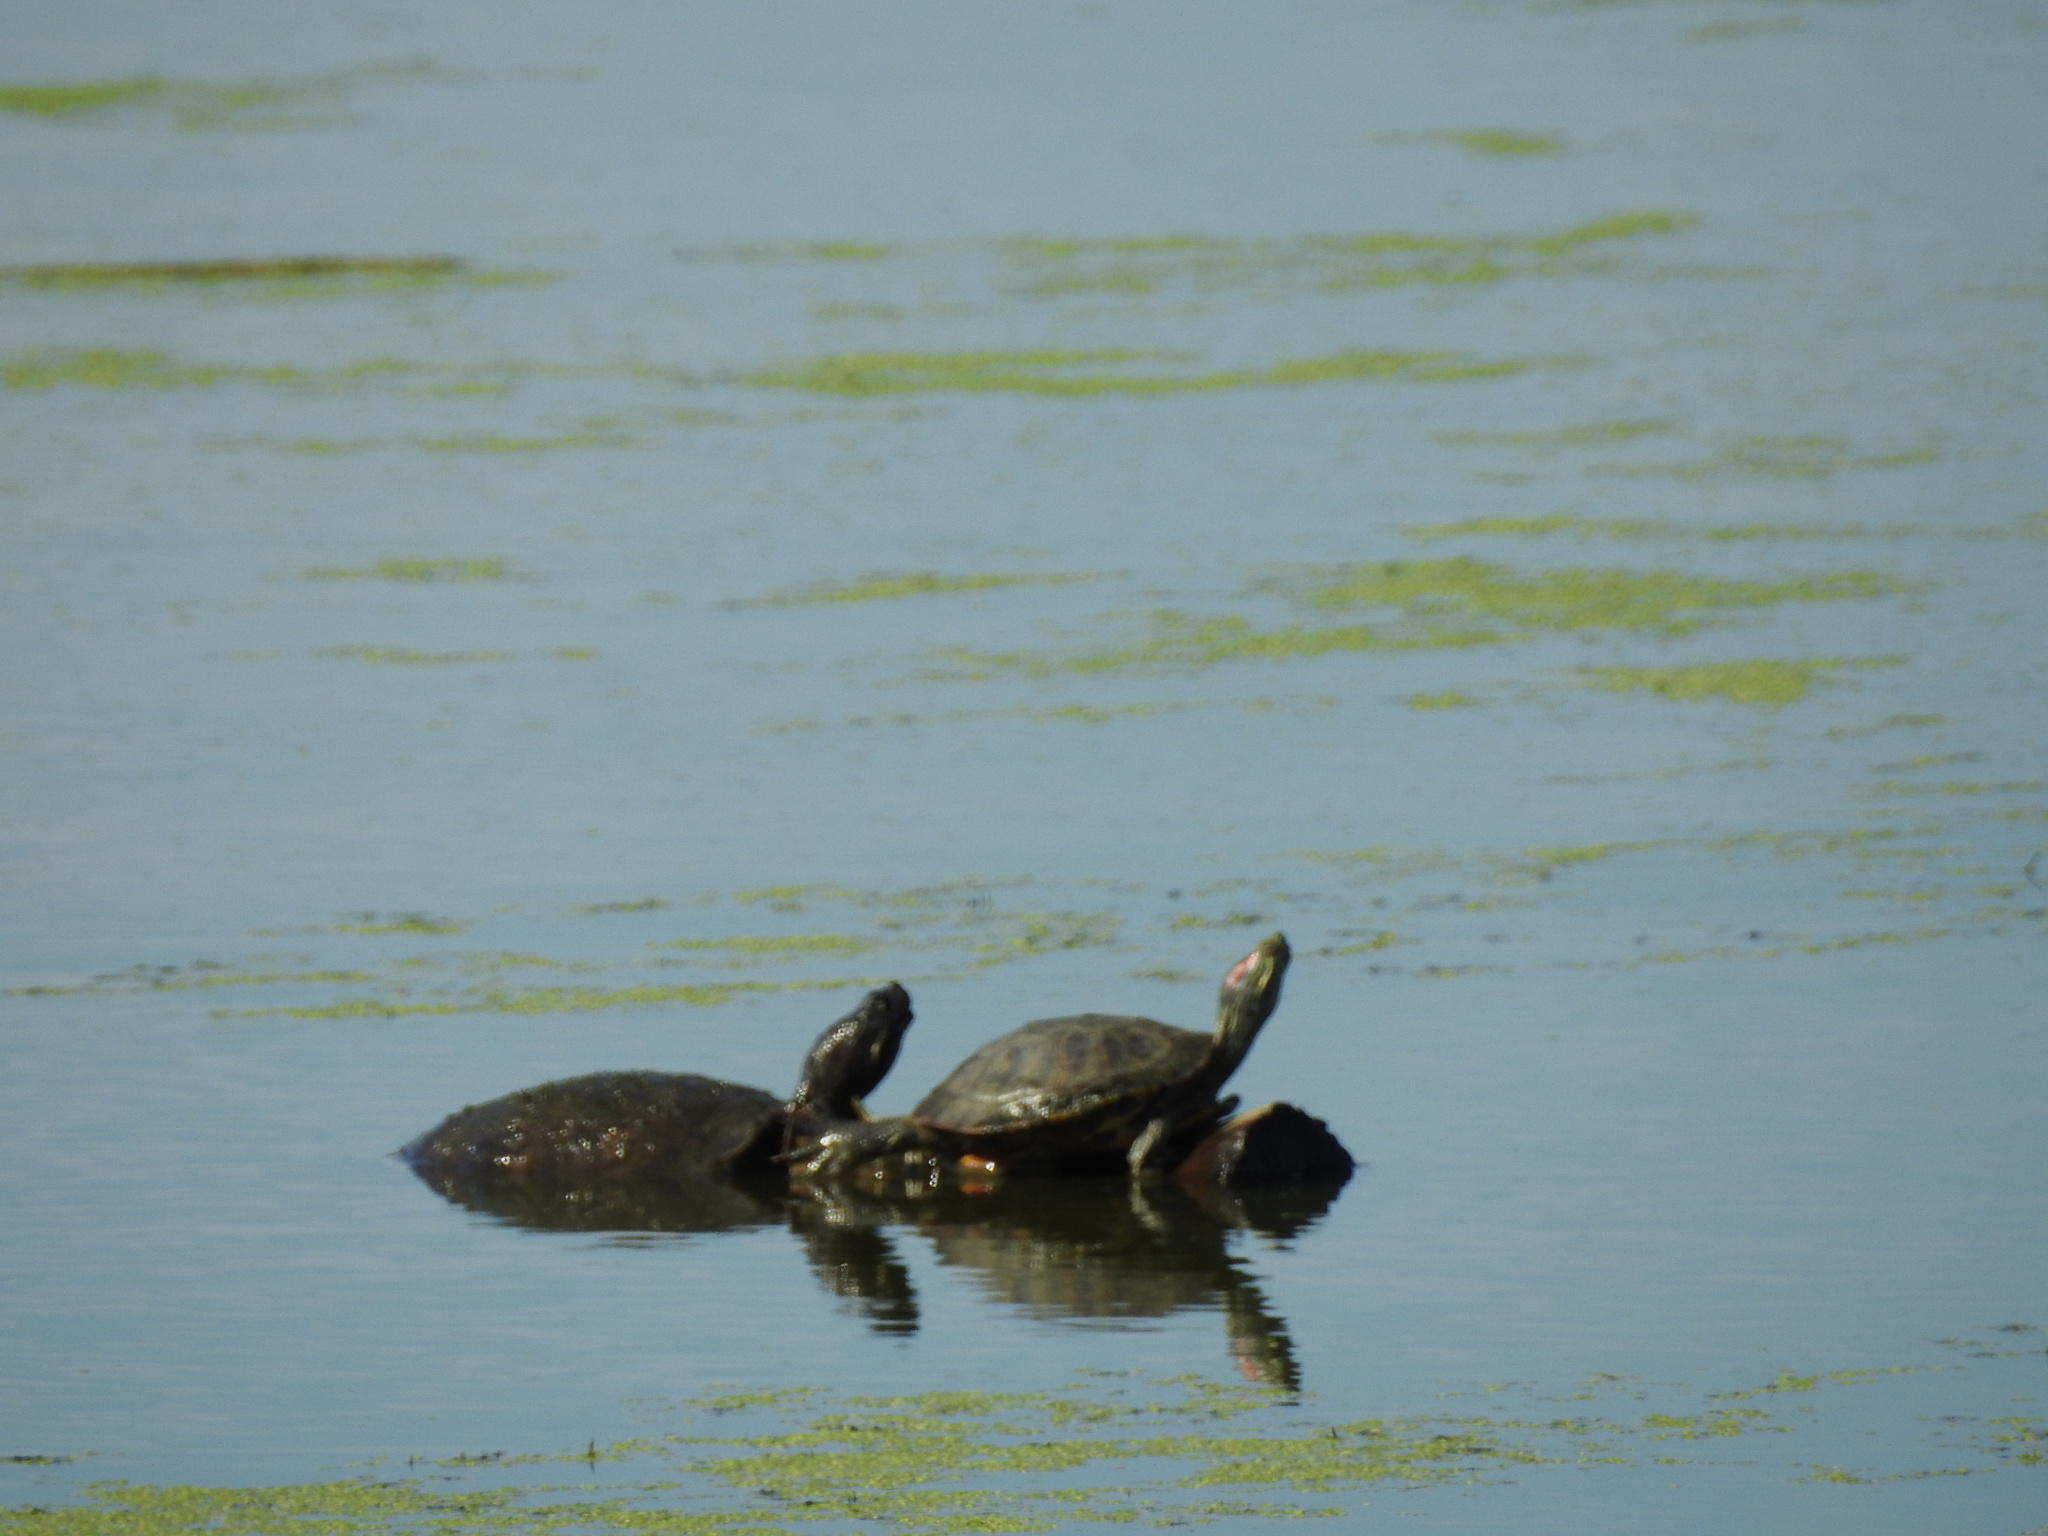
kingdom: Animalia
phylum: Chordata
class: Testudines
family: Emydidae
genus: Trachemys
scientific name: Trachemys scripta
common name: Slider
